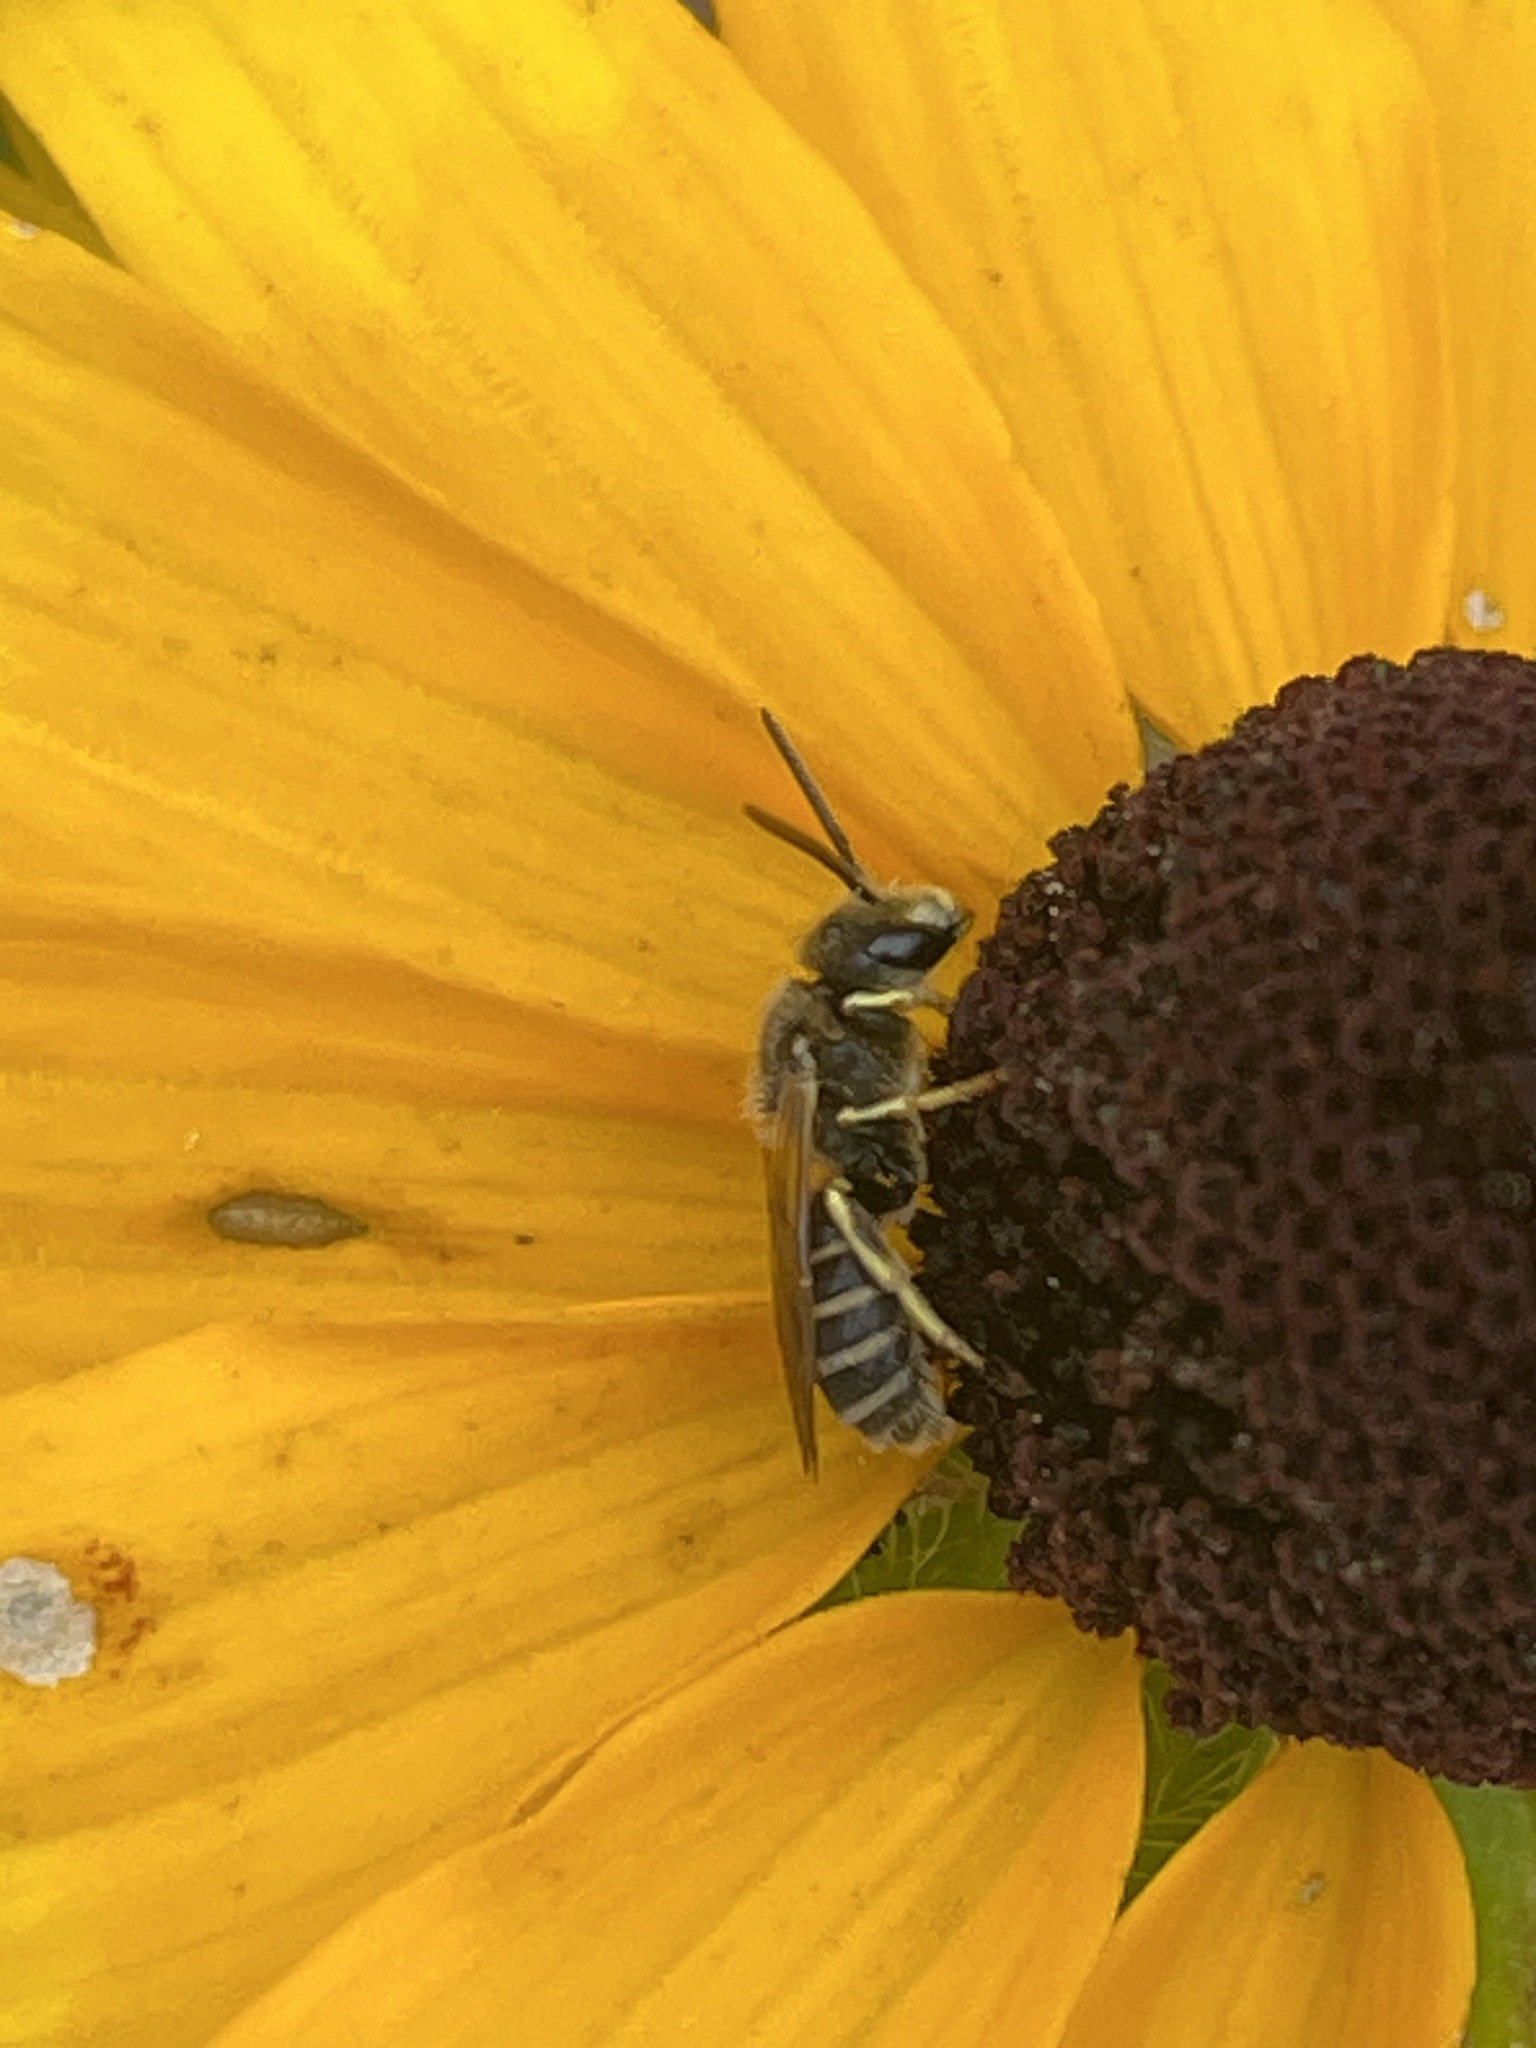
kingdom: Animalia
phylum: Arthropoda
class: Insecta
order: Hymenoptera
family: Halictidae
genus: Halictus
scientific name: Halictus ligatus
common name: Ligated furrow bee
